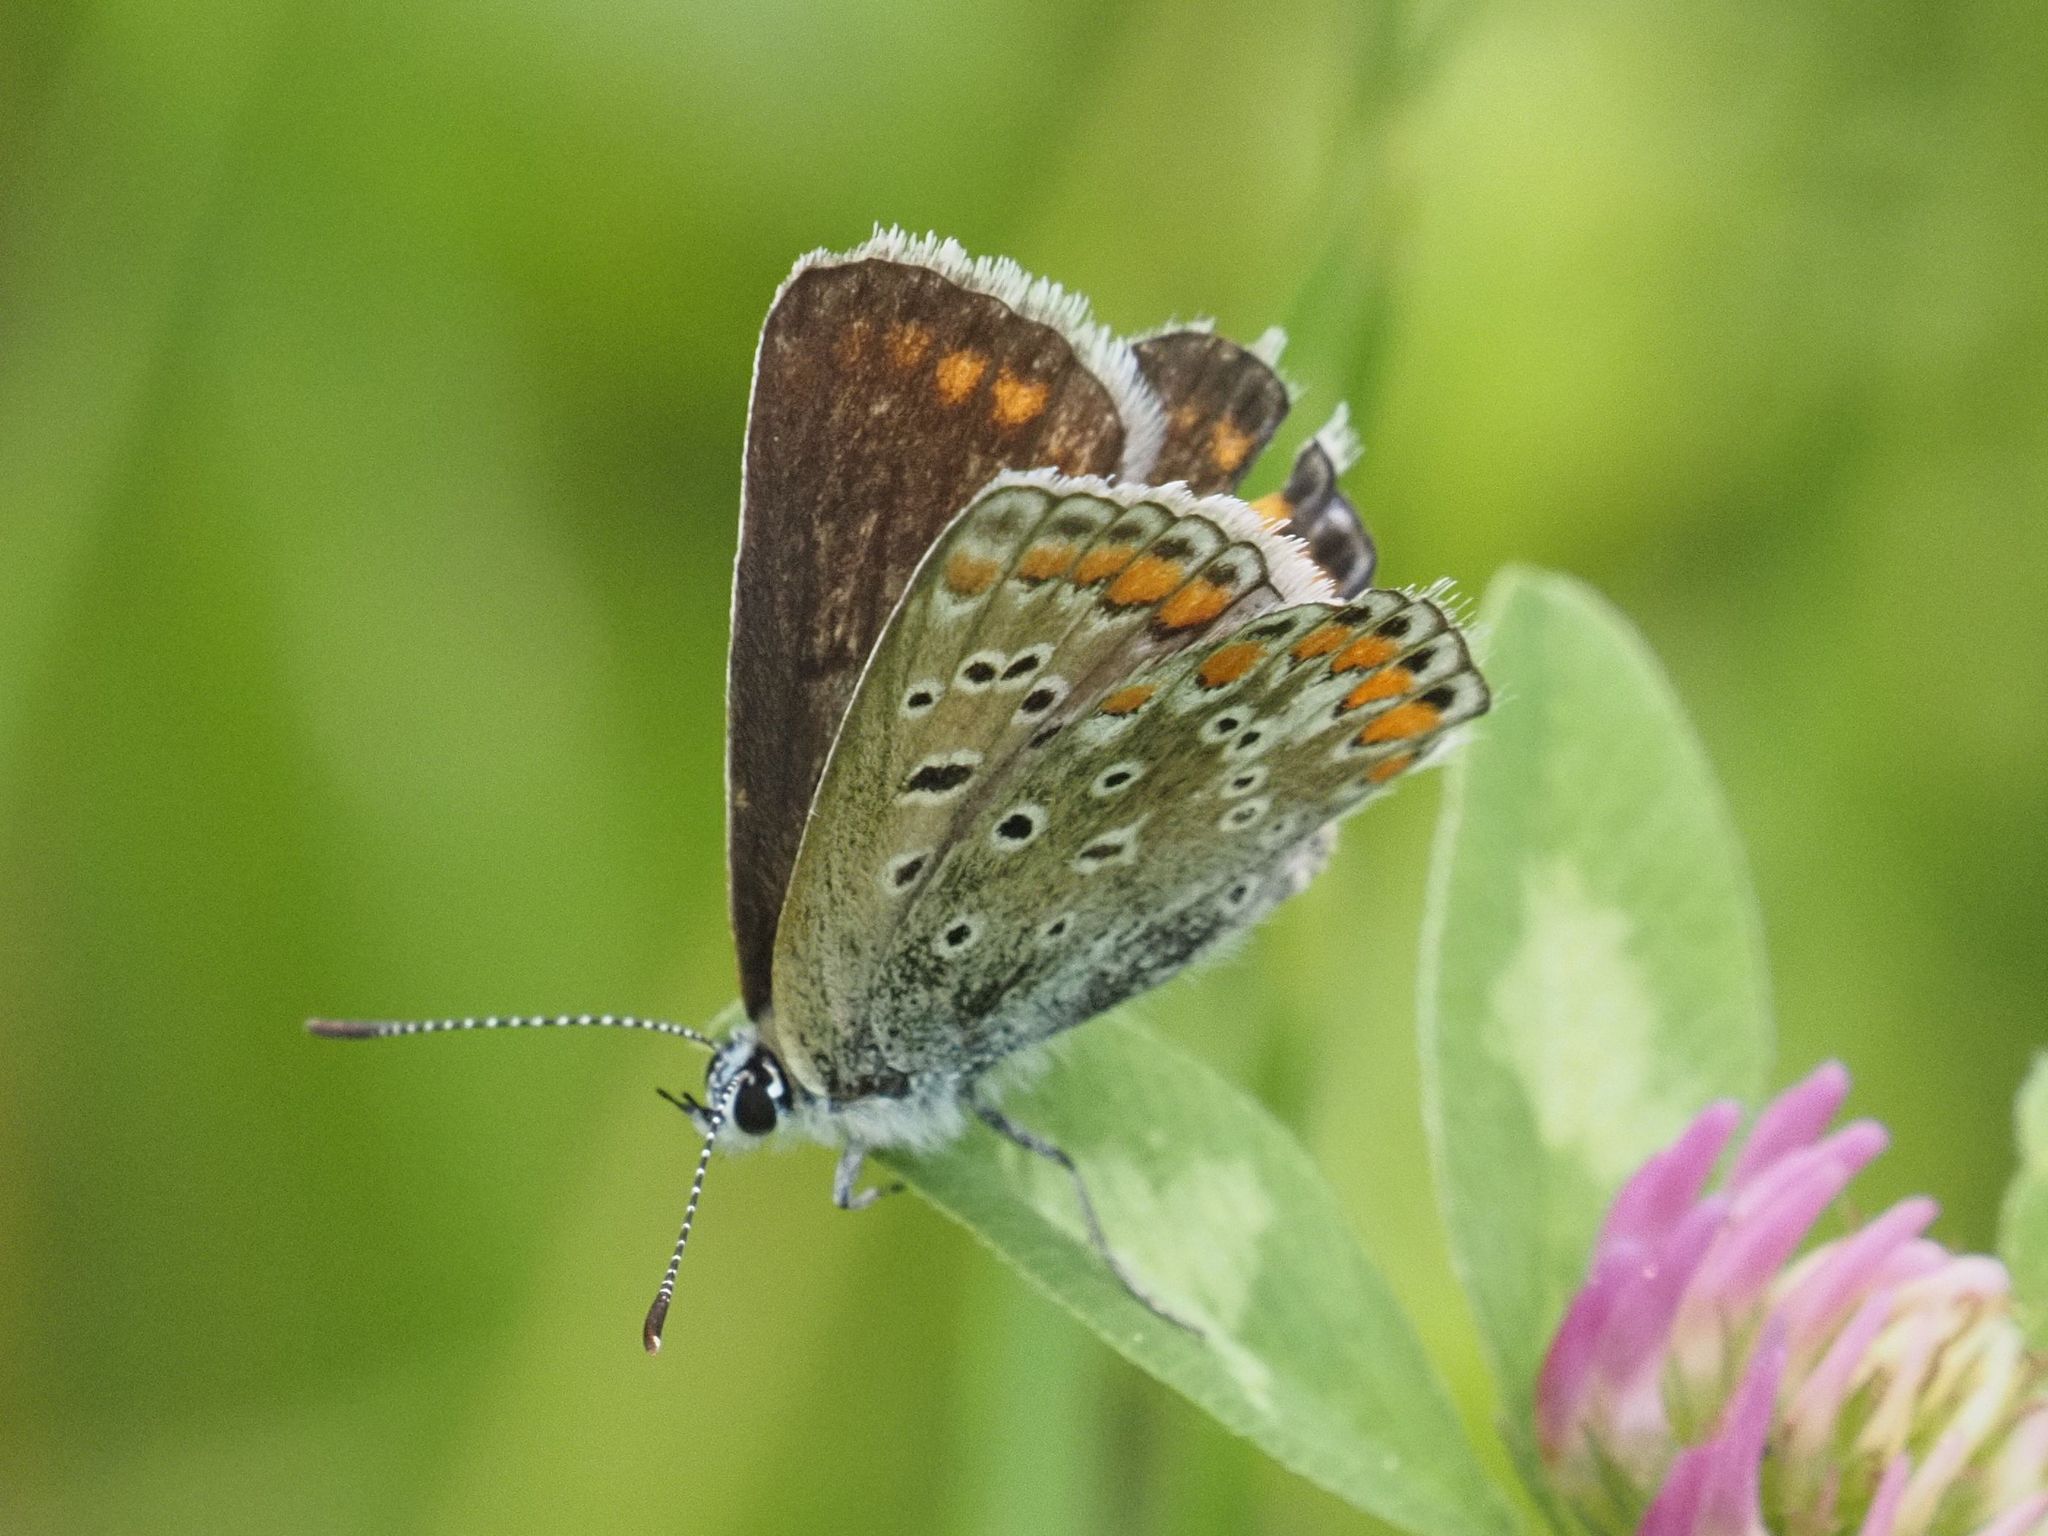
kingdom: Animalia
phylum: Arthropoda
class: Insecta
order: Lepidoptera
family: Erebidae
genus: Euclidia
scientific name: Euclidia glyphica
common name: Burnet companion
